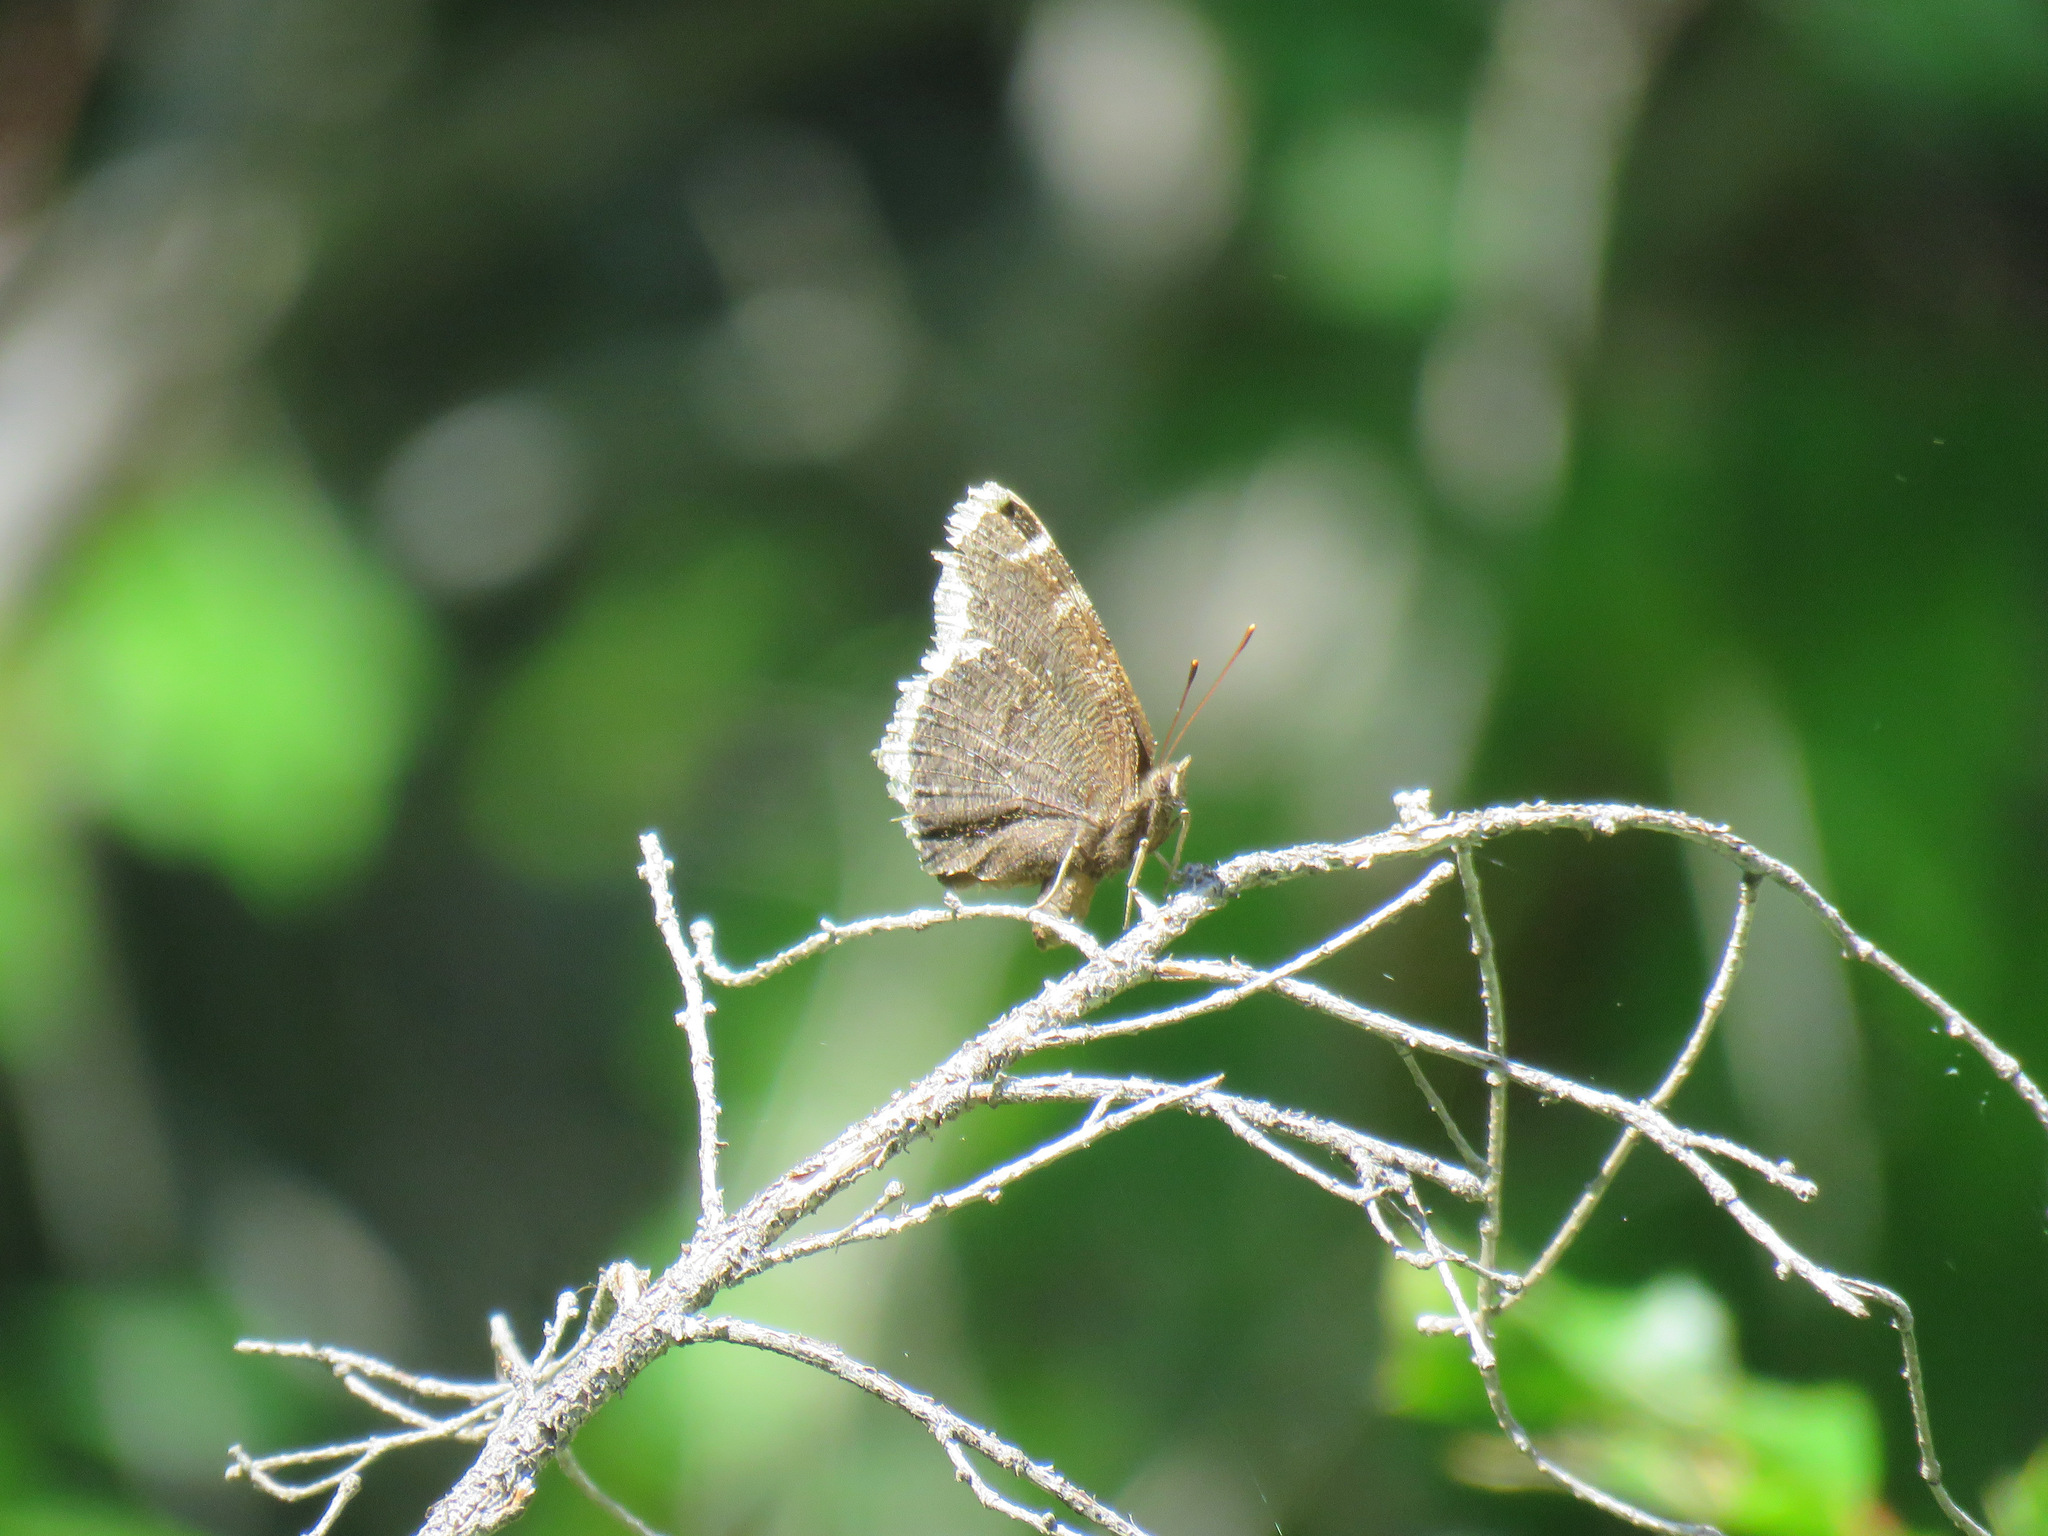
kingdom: Animalia
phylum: Arthropoda
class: Insecta
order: Lepidoptera
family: Nymphalidae
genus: Nymphalis
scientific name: Nymphalis antiopa
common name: Camberwell beauty
